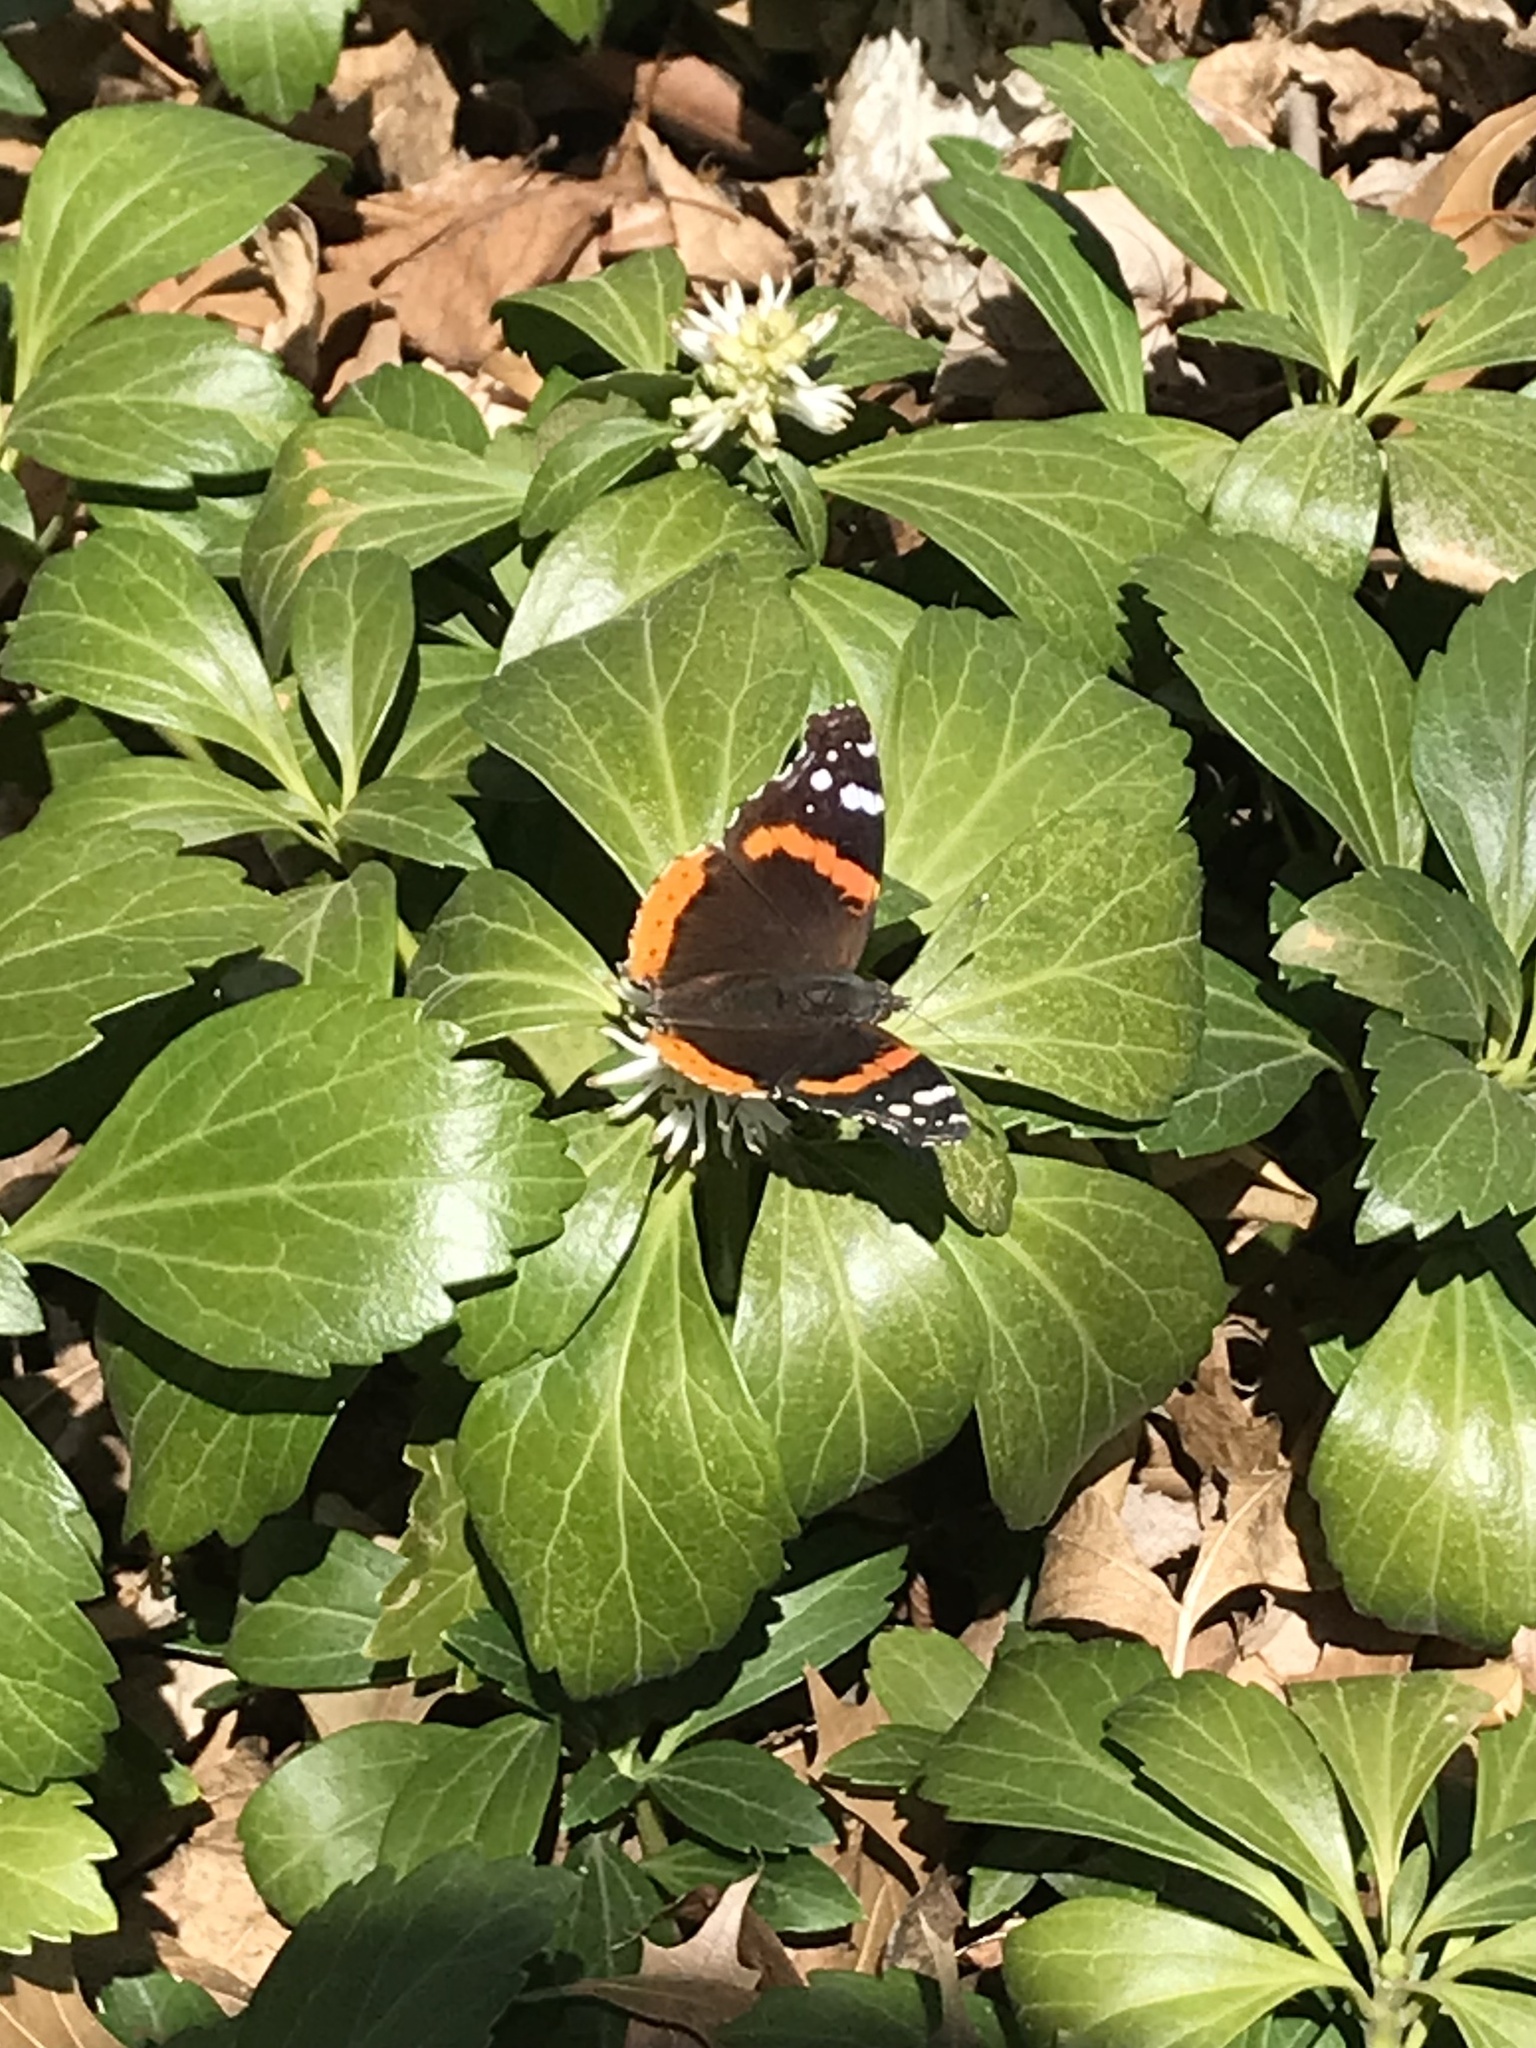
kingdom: Animalia
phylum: Arthropoda
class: Insecta
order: Lepidoptera
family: Nymphalidae
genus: Vanessa
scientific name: Vanessa atalanta
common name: Red admiral
